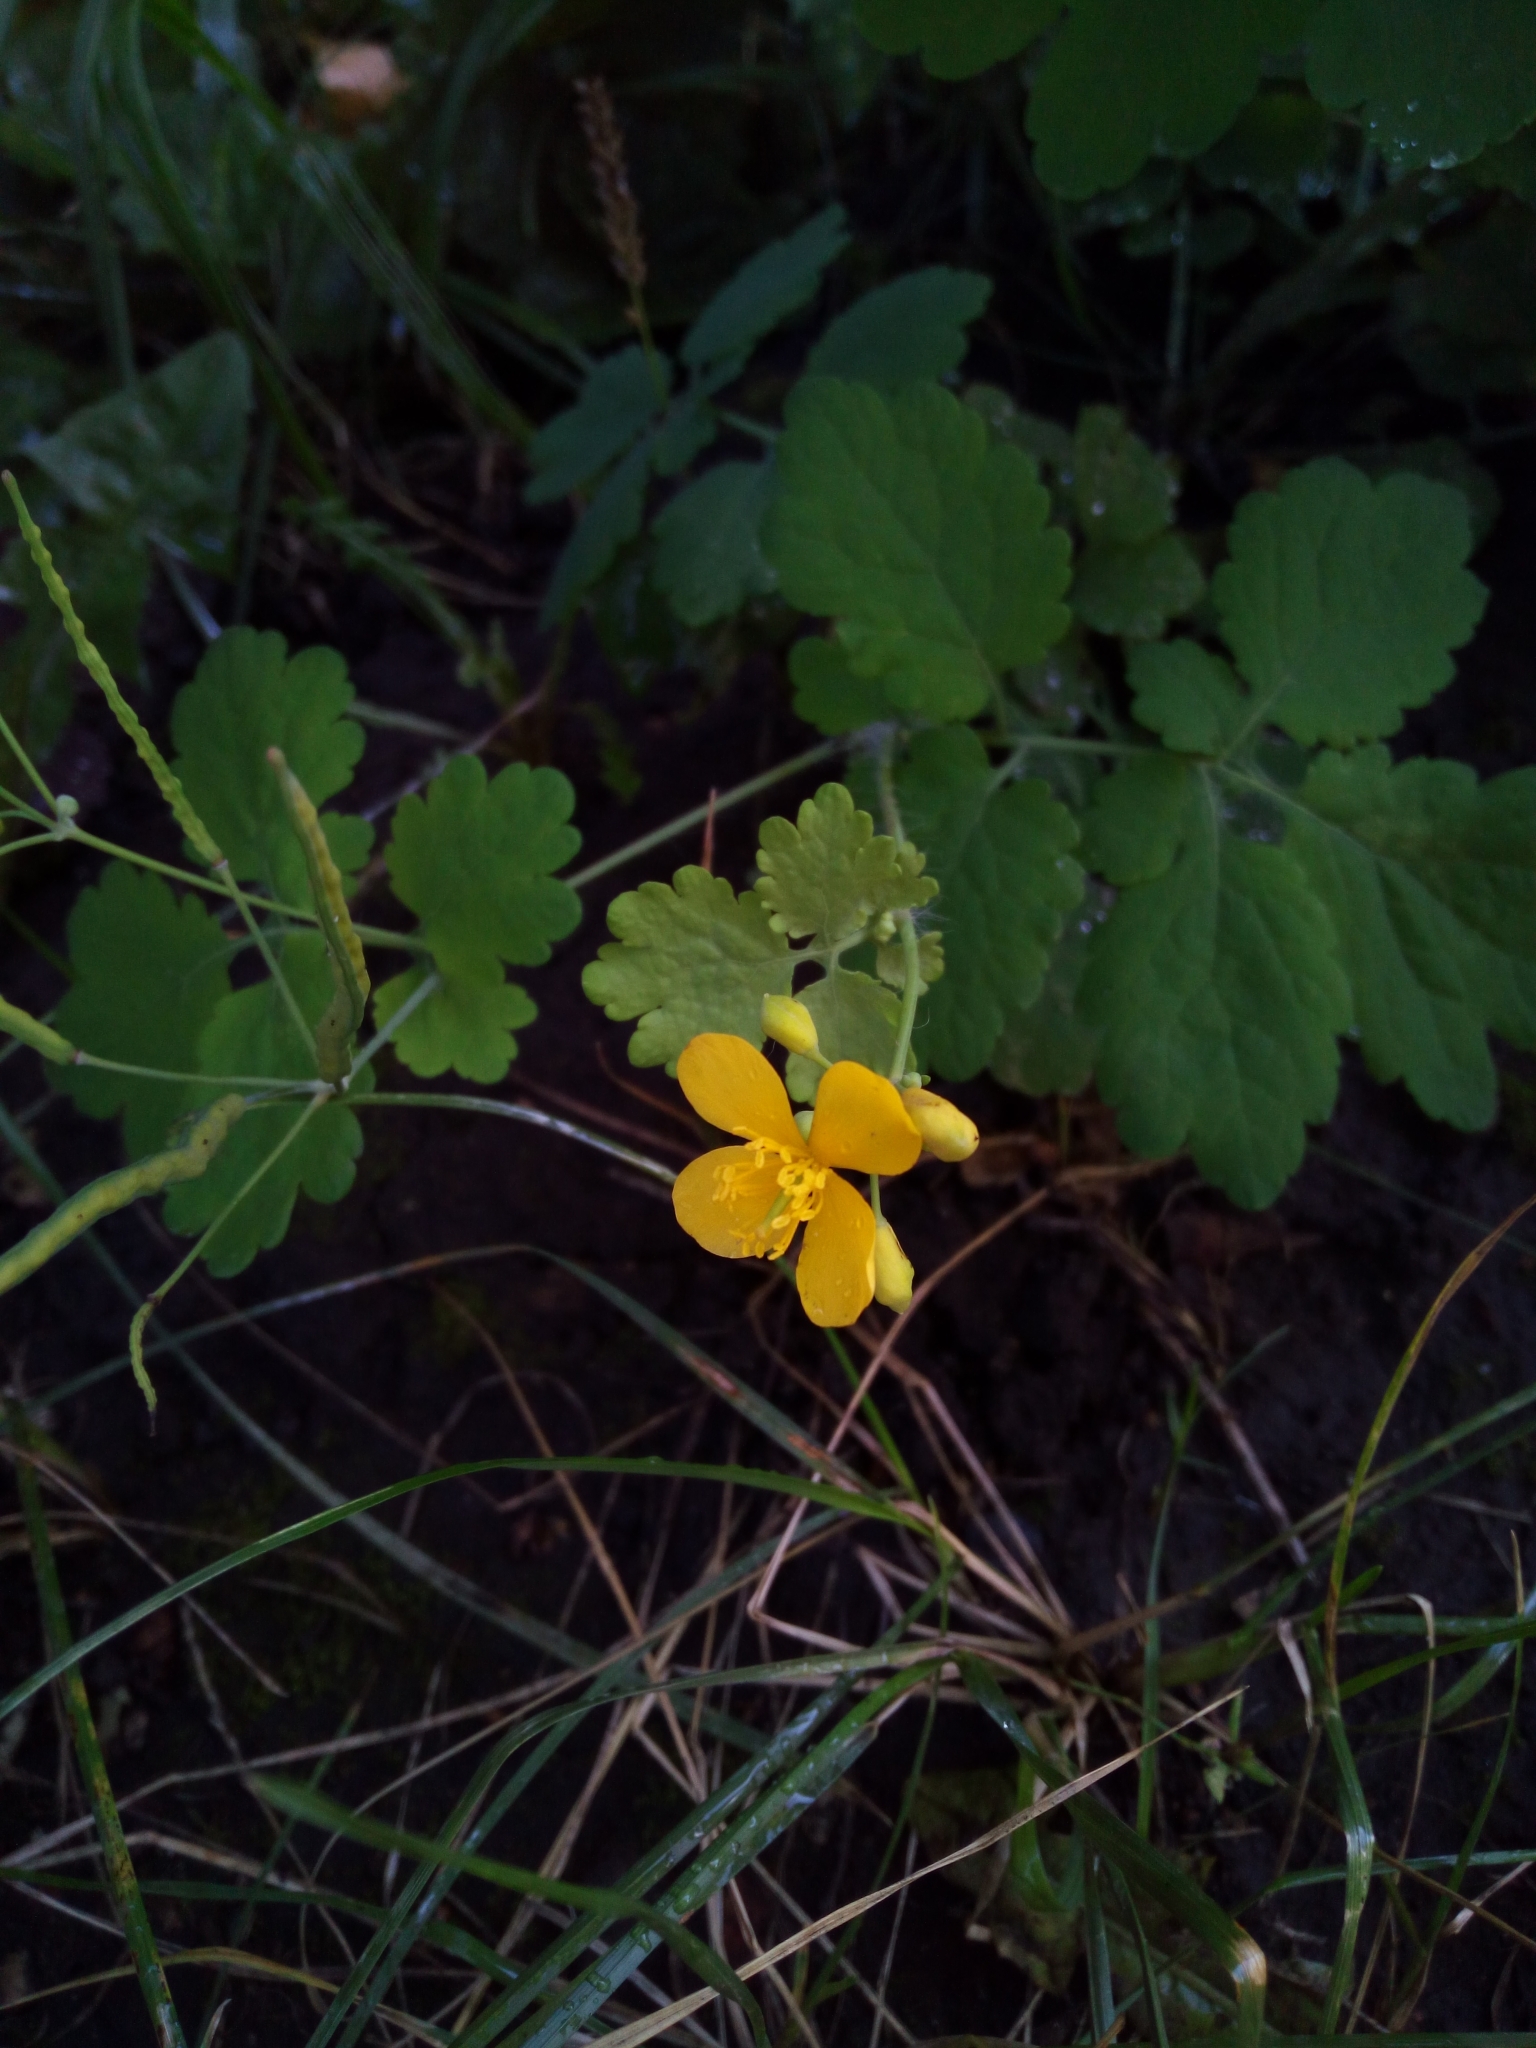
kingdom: Plantae
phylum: Tracheophyta
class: Magnoliopsida
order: Ranunculales
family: Papaveraceae
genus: Chelidonium
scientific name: Chelidonium majus
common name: Greater celandine
